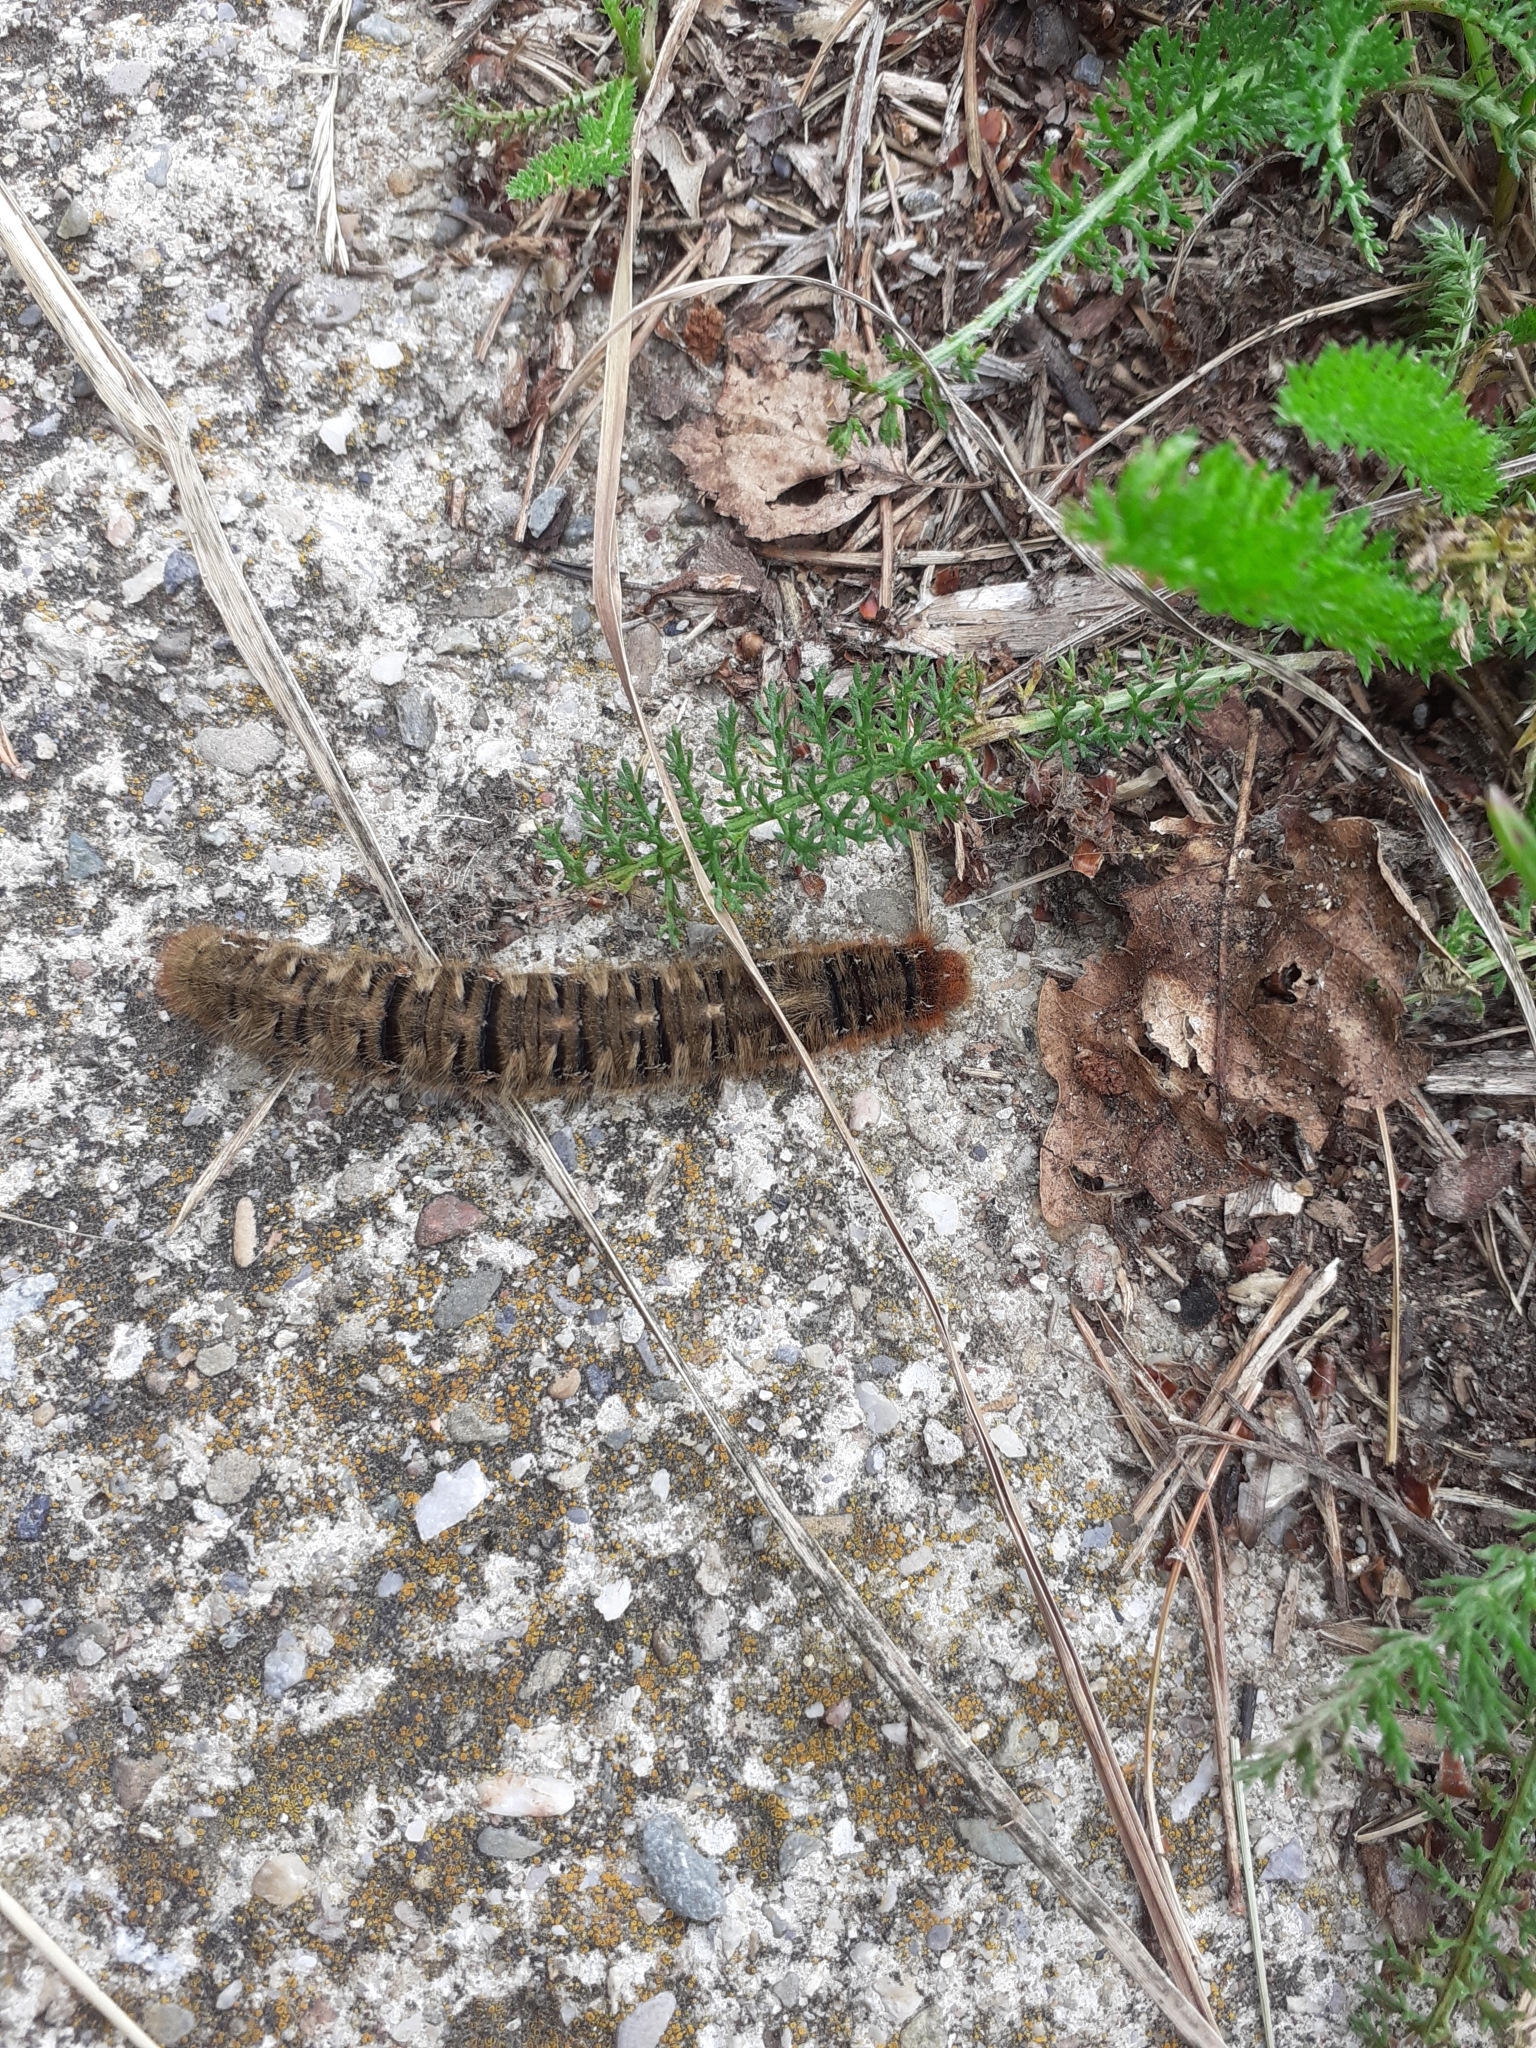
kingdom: Animalia
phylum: Arthropoda
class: Insecta
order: Lepidoptera
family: Lasiocampidae
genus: Lasiocampa
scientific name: Lasiocampa quercus
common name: Oak eggar
